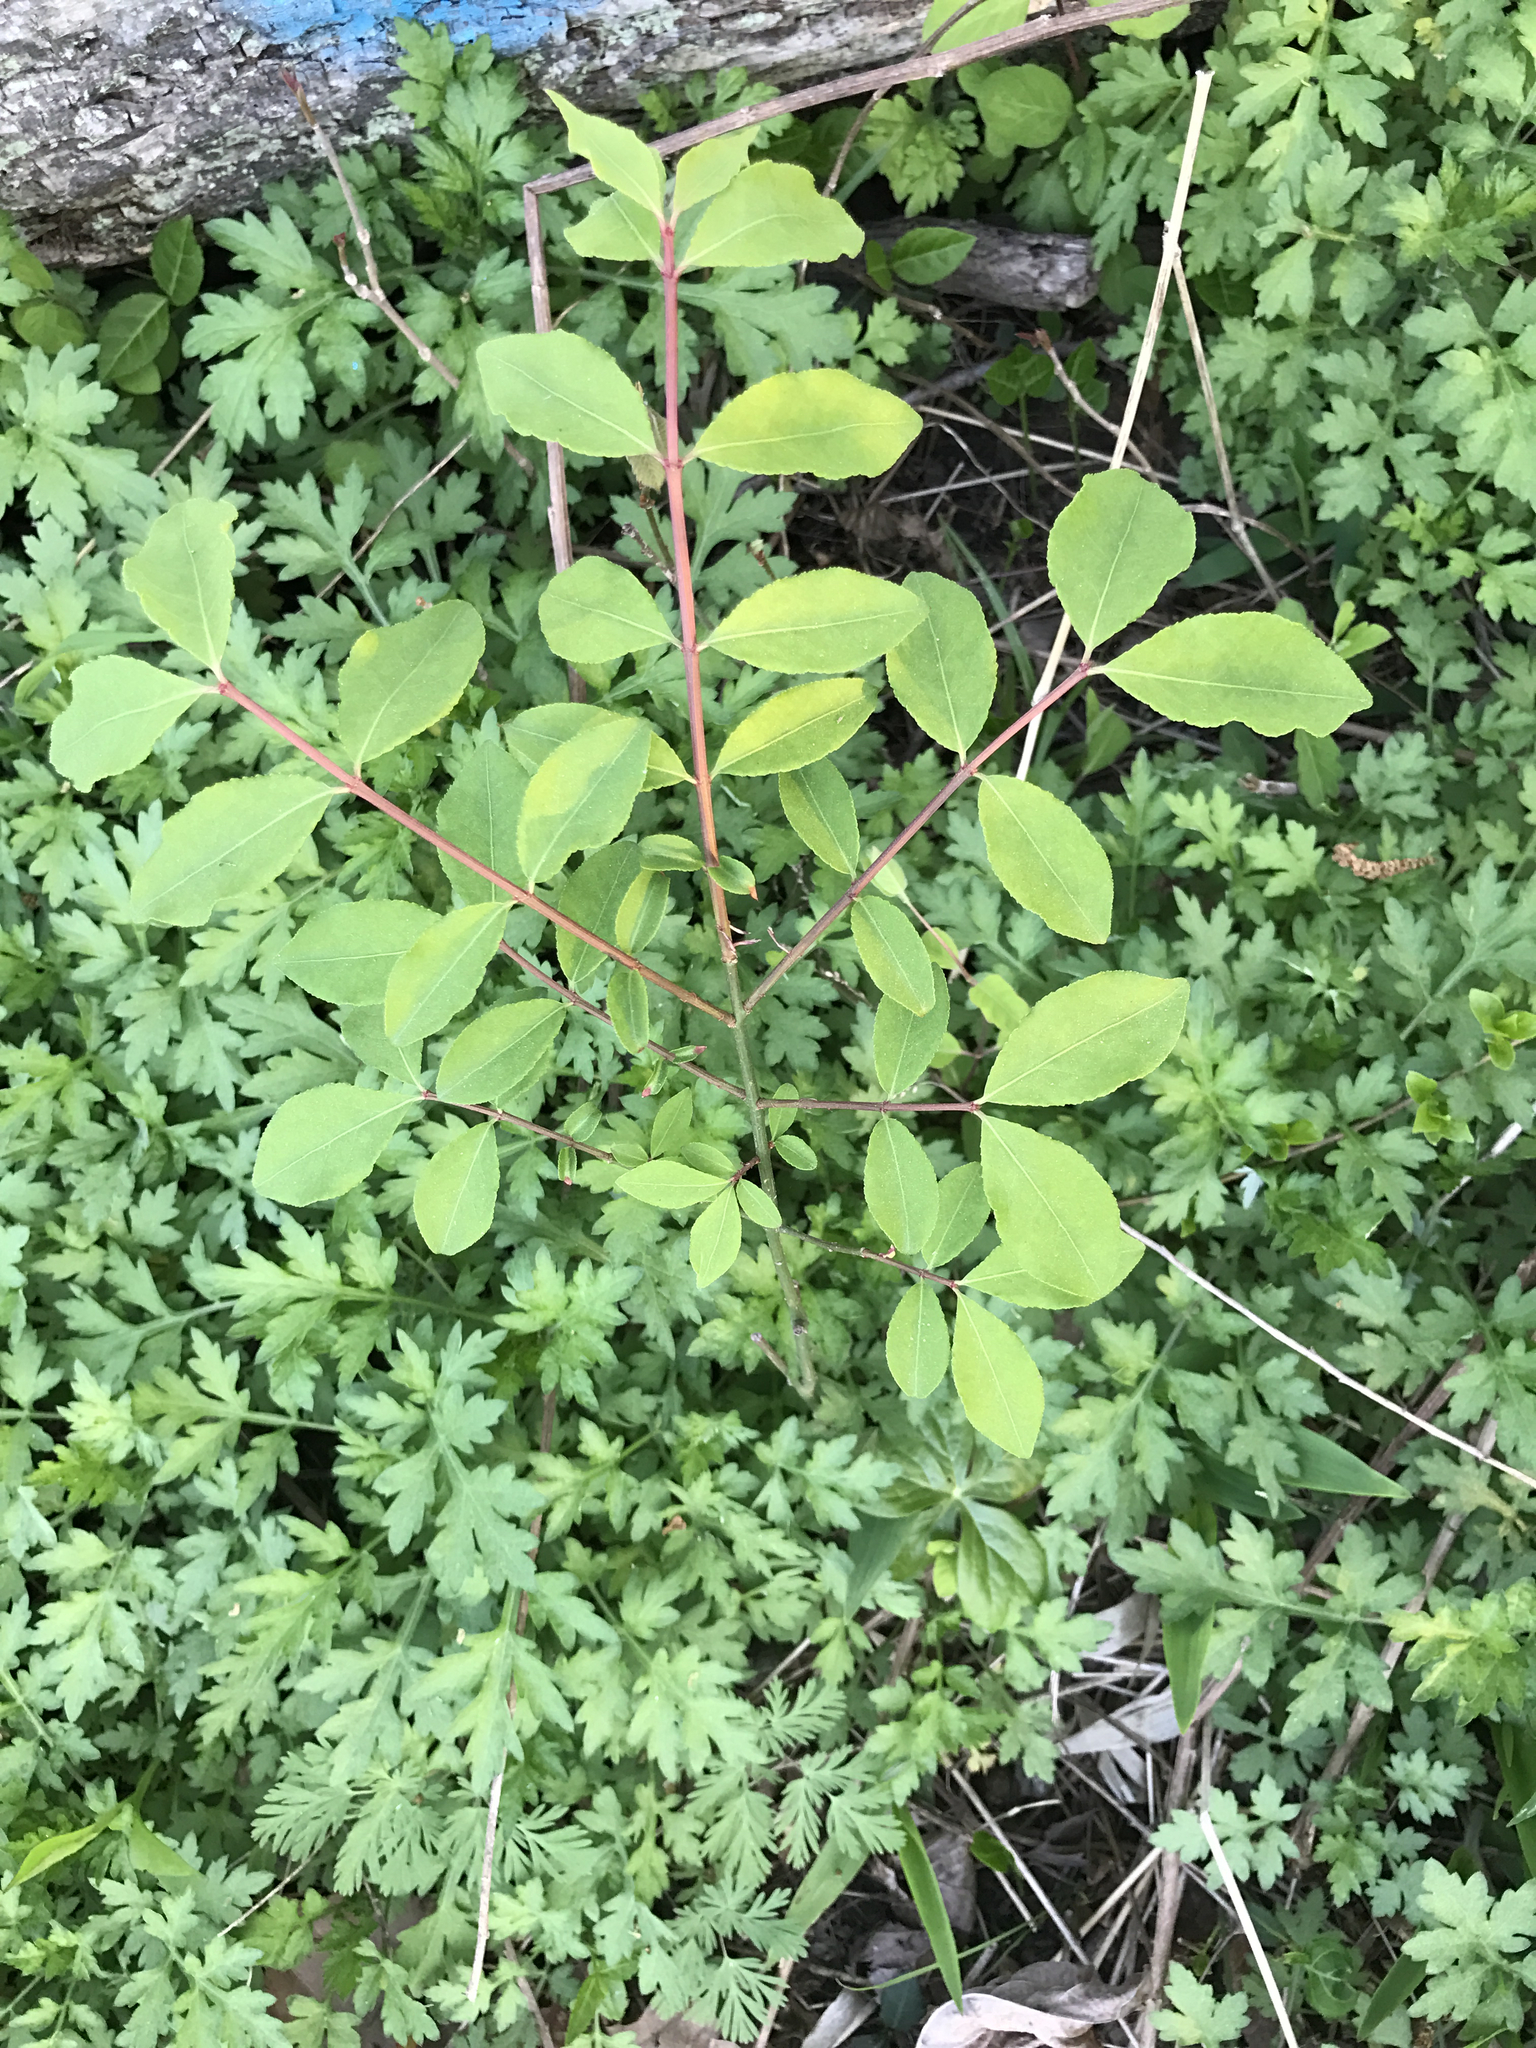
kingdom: Plantae
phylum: Tracheophyta
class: Magnoliopsida
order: Celastrales
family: Celastraceae
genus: Euonymus
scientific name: Euonymus alatus
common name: Winged euonymus
